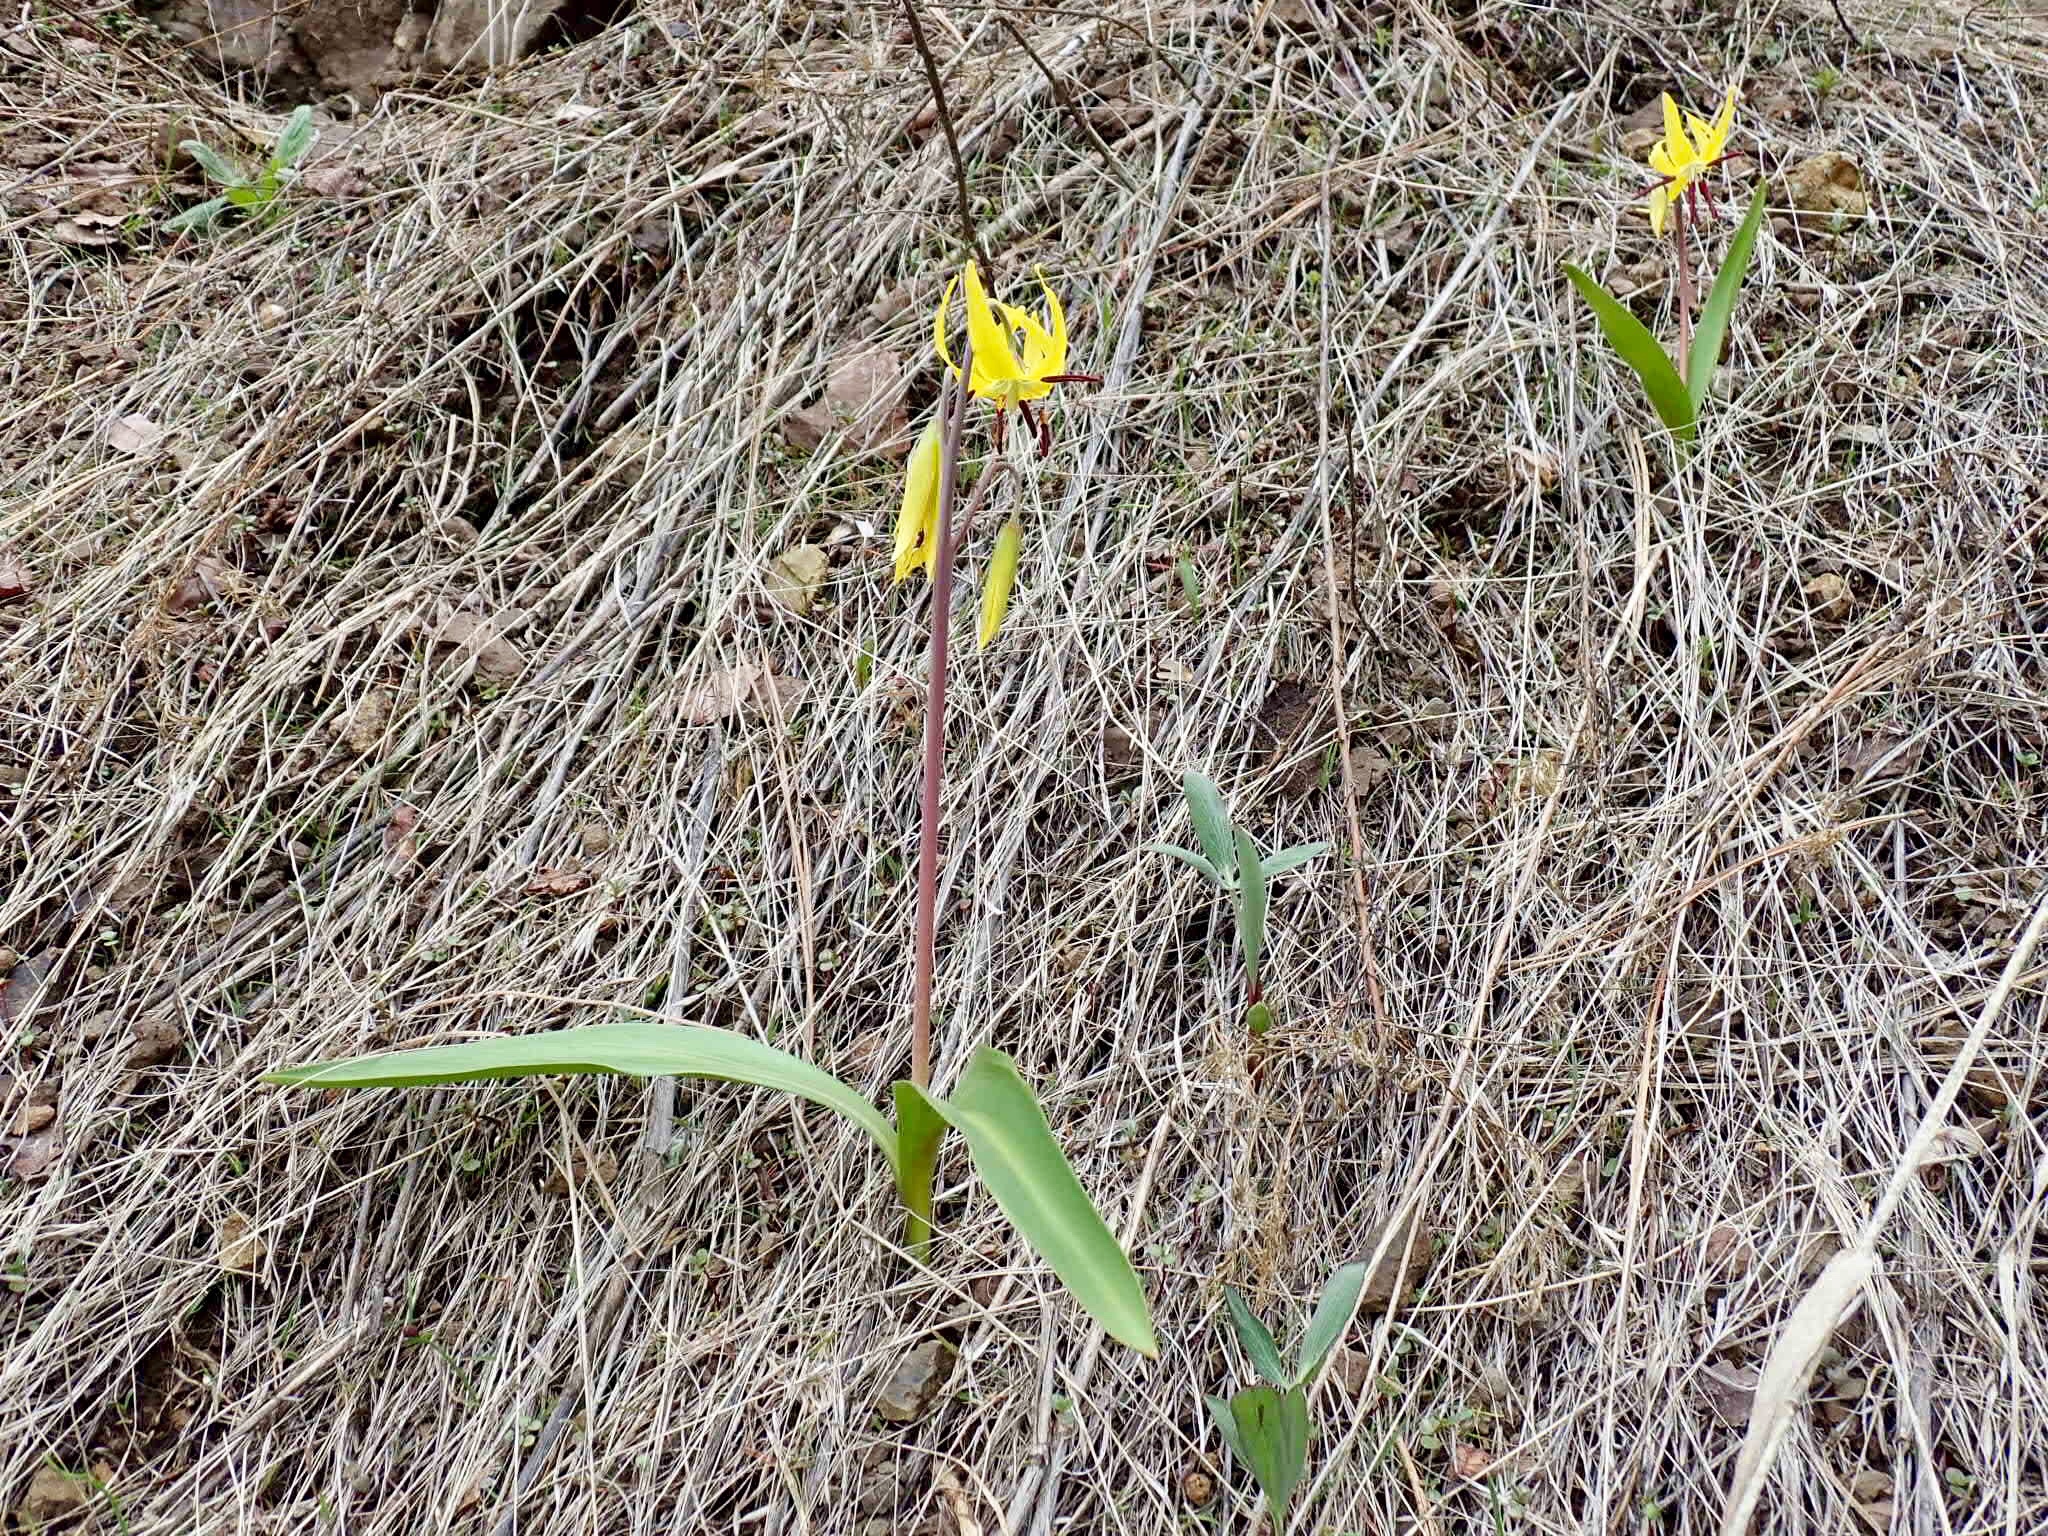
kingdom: Plantae
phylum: Tracheophyta
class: Liliopsida
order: Liliales
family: Liliaceae
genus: Erythronium
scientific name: Erythronium grandiflorum
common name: Avalanche-lily
